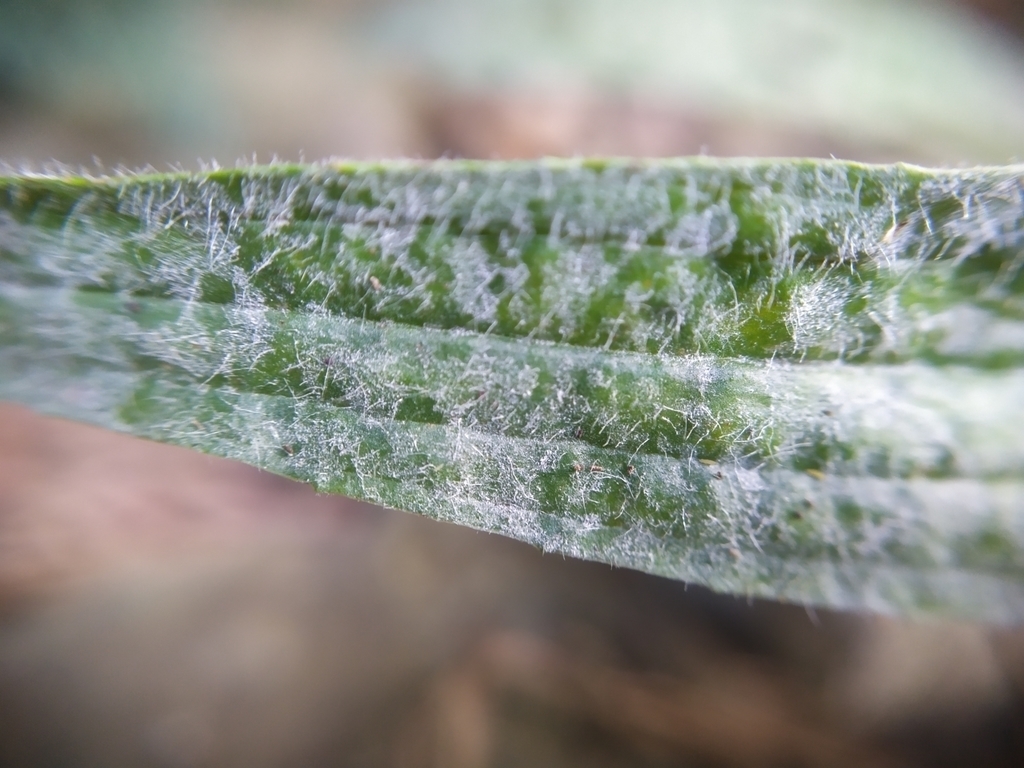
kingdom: Fungi
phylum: Ascomycota
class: Leotiomycetes
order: Helotiales
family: Erysiphaceae
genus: Golovinomyces
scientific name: Golovinomyces sordidus
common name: Plantain mildew
